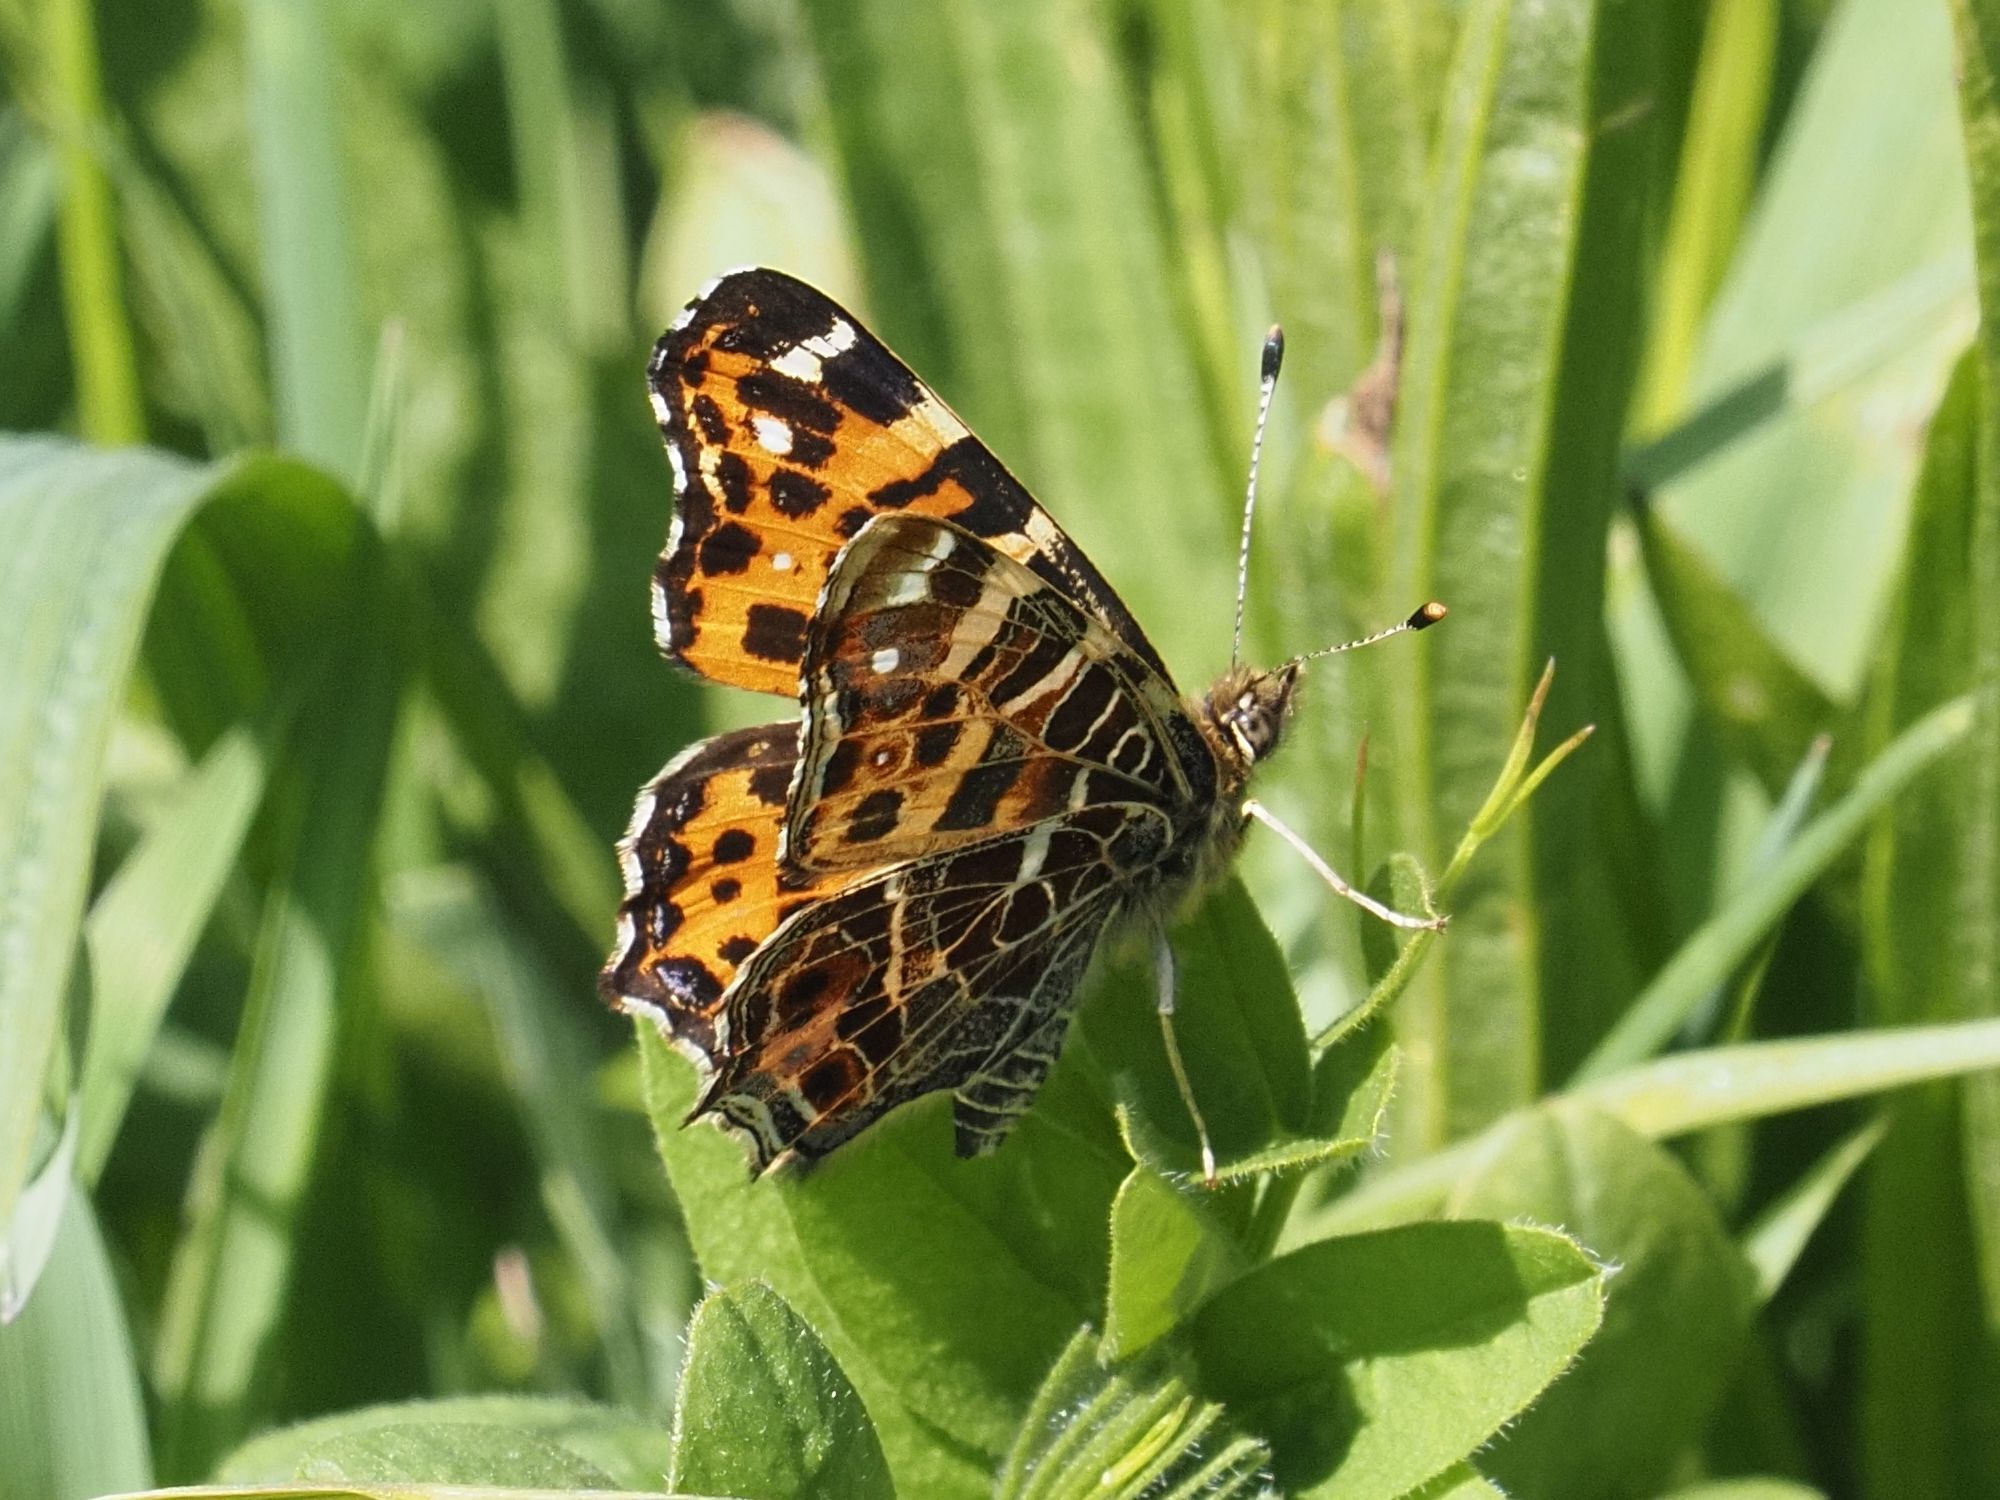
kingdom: Animalia
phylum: Arthropoda
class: Insecta
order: Lepidoptera
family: Nymphalidae
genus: Araschnia
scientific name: Araschnia levana
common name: Map butterfly
